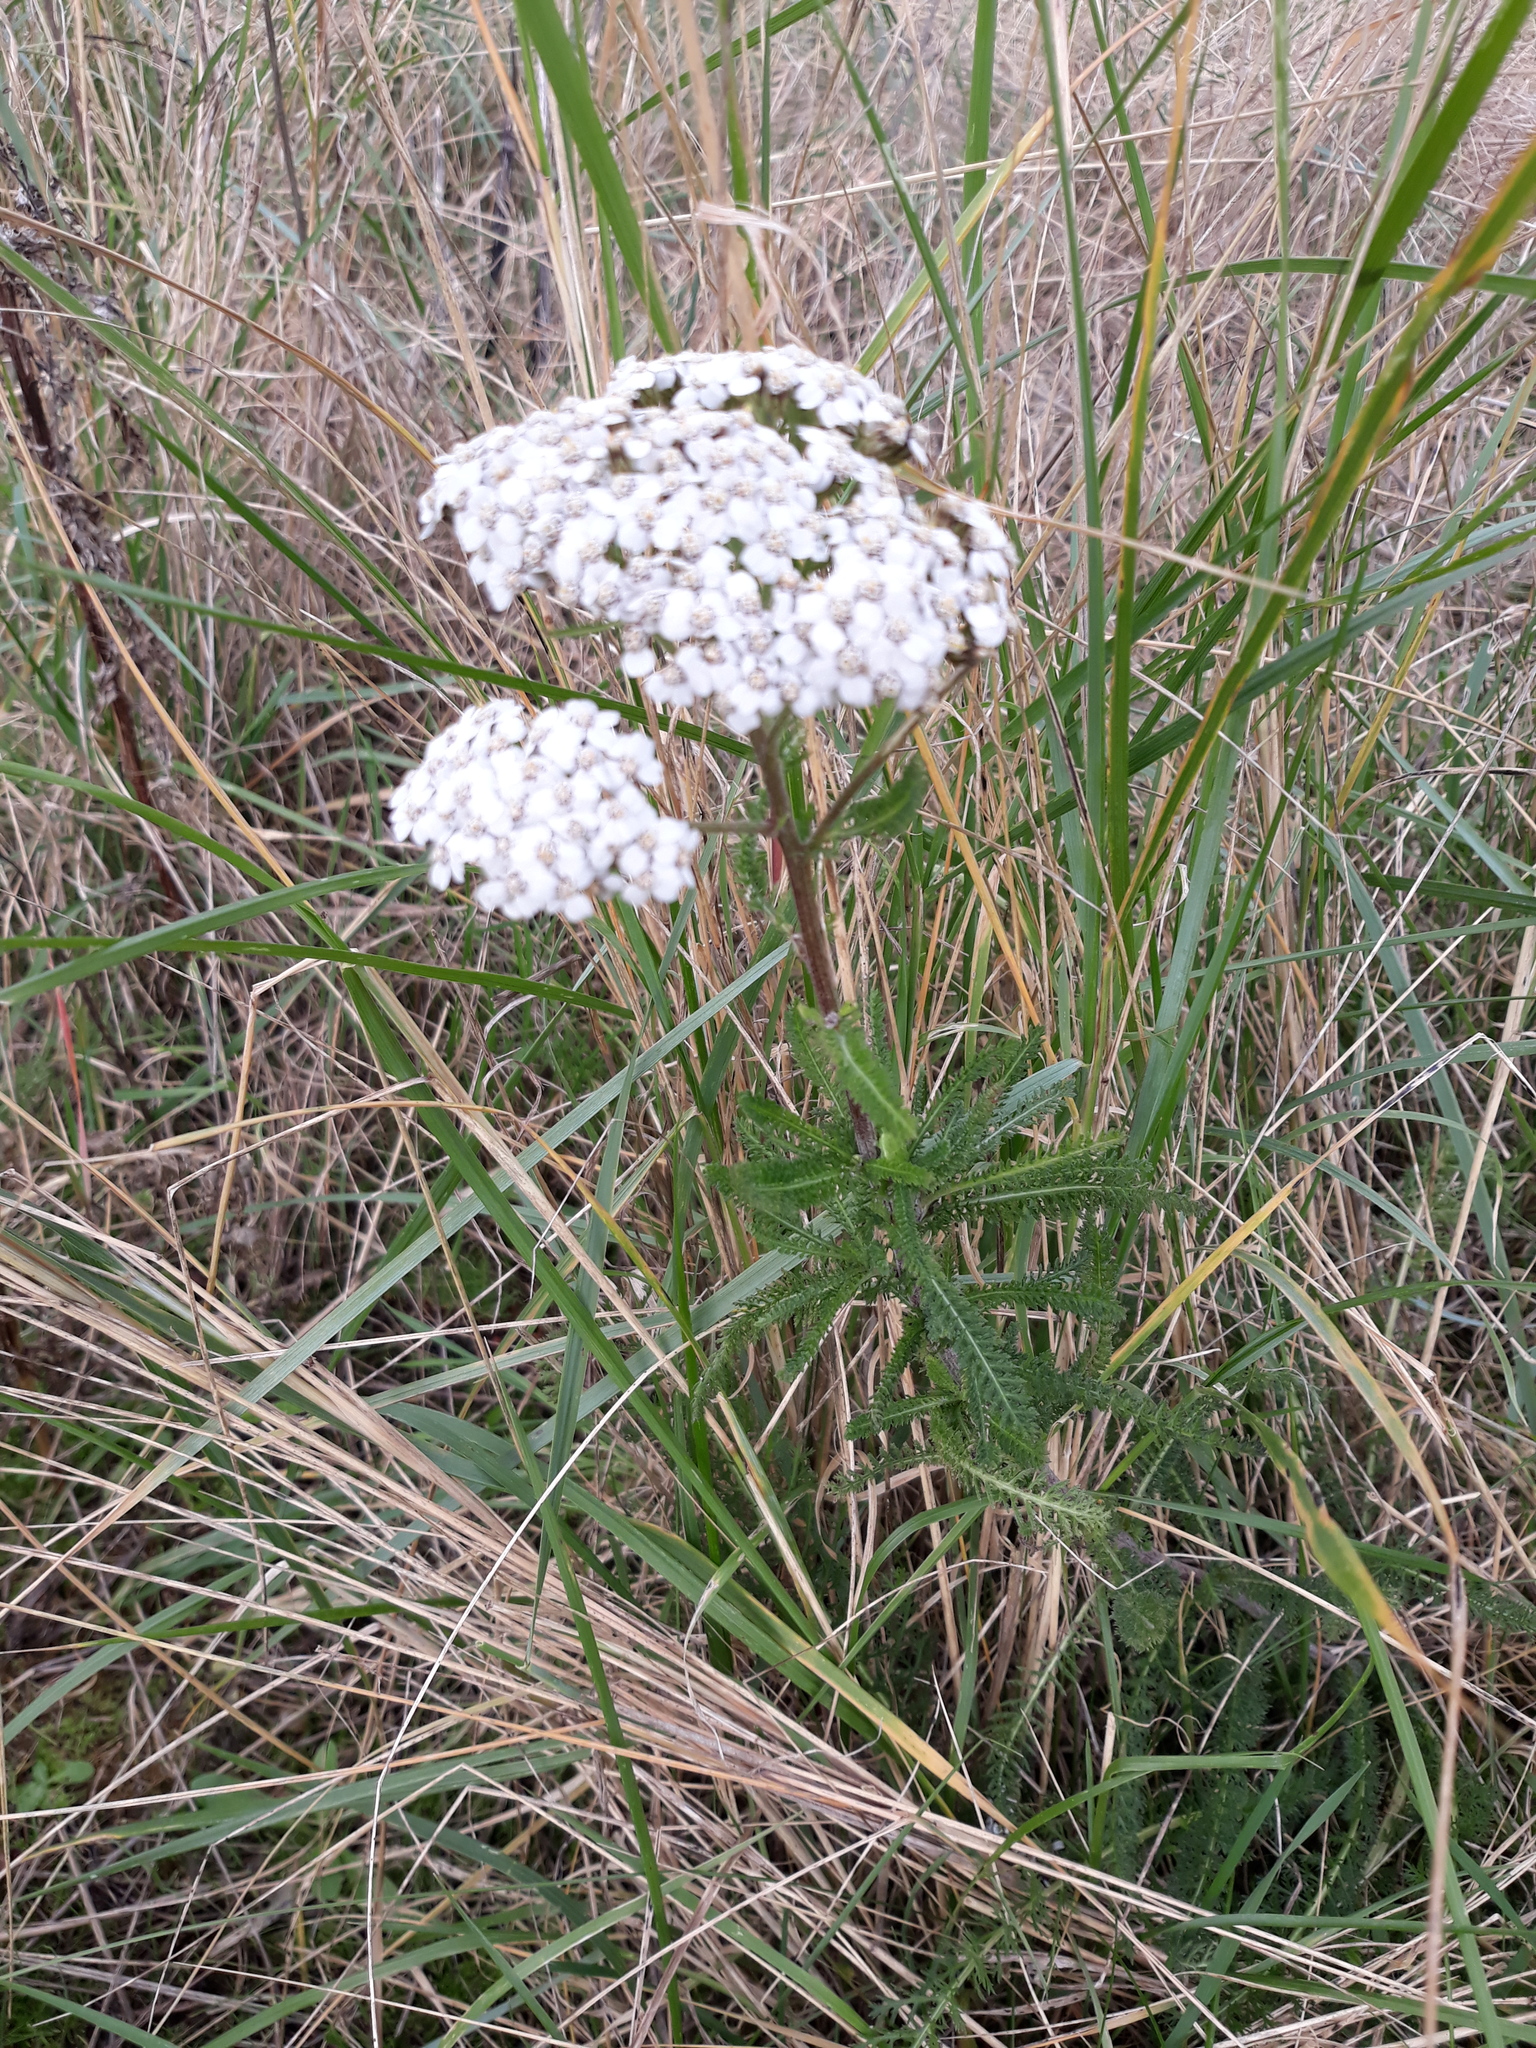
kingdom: Plantae
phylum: Tracheophyta
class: Magnoliopsida
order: Asterales
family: Asteraceae
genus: Achillea
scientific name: Achillea millefolium
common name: Yarrow
